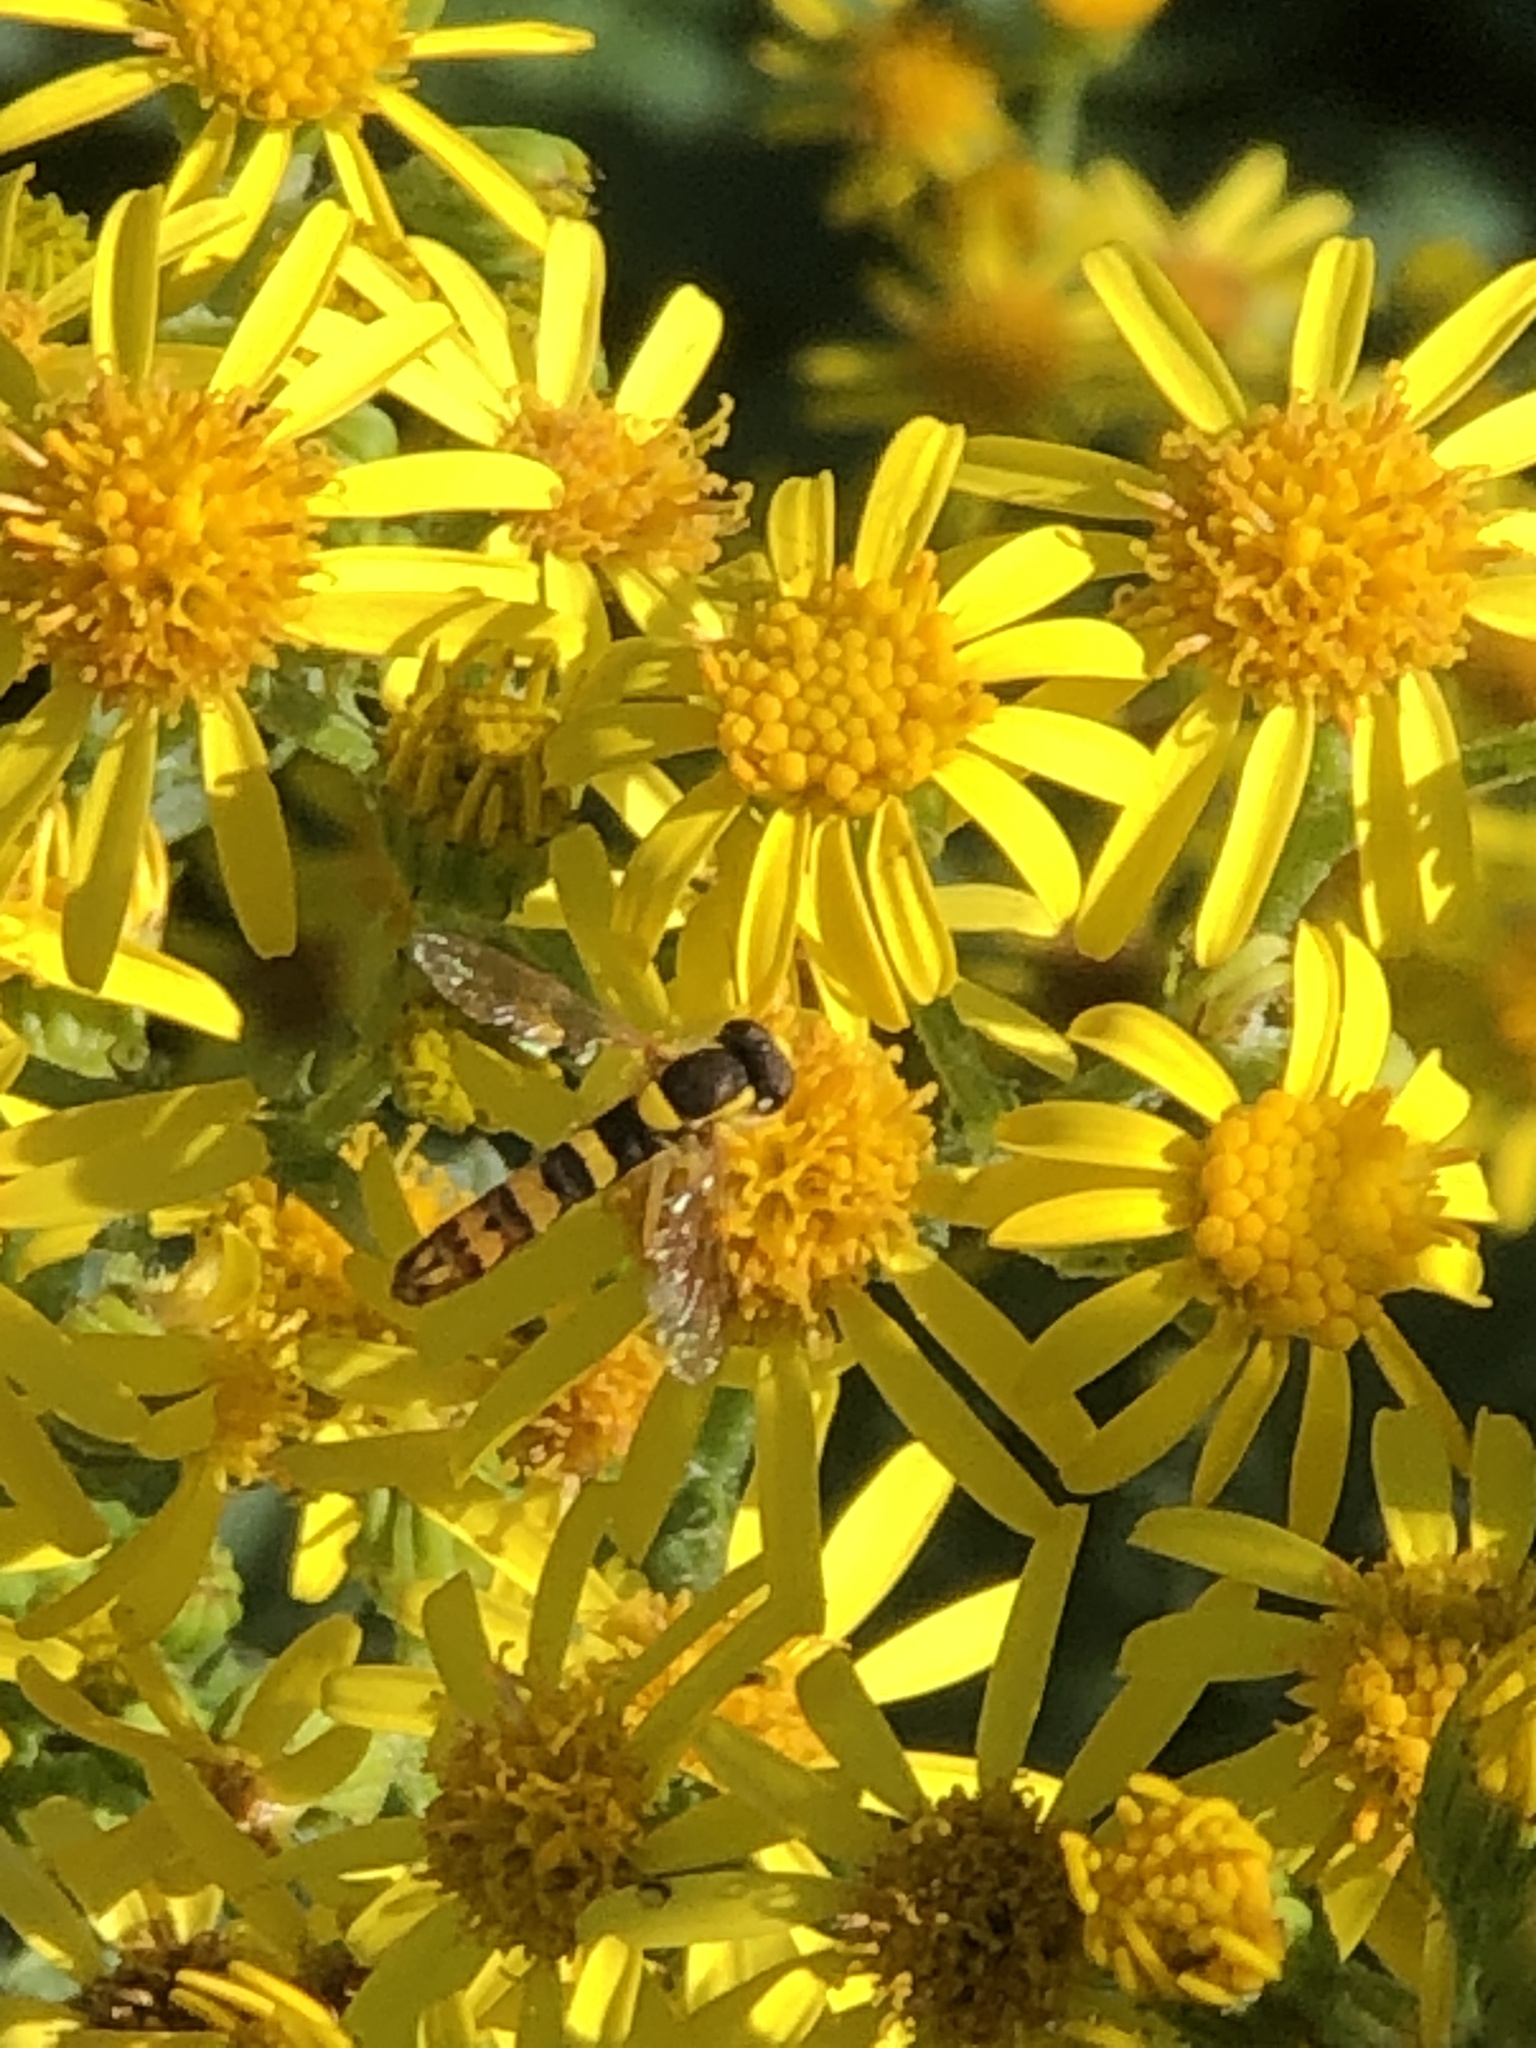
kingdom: Animalia
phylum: Arthropoda
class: Insecta
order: Diptera
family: Syrphidae
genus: Sphaerophoria
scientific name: Sphaerophoria scripta
